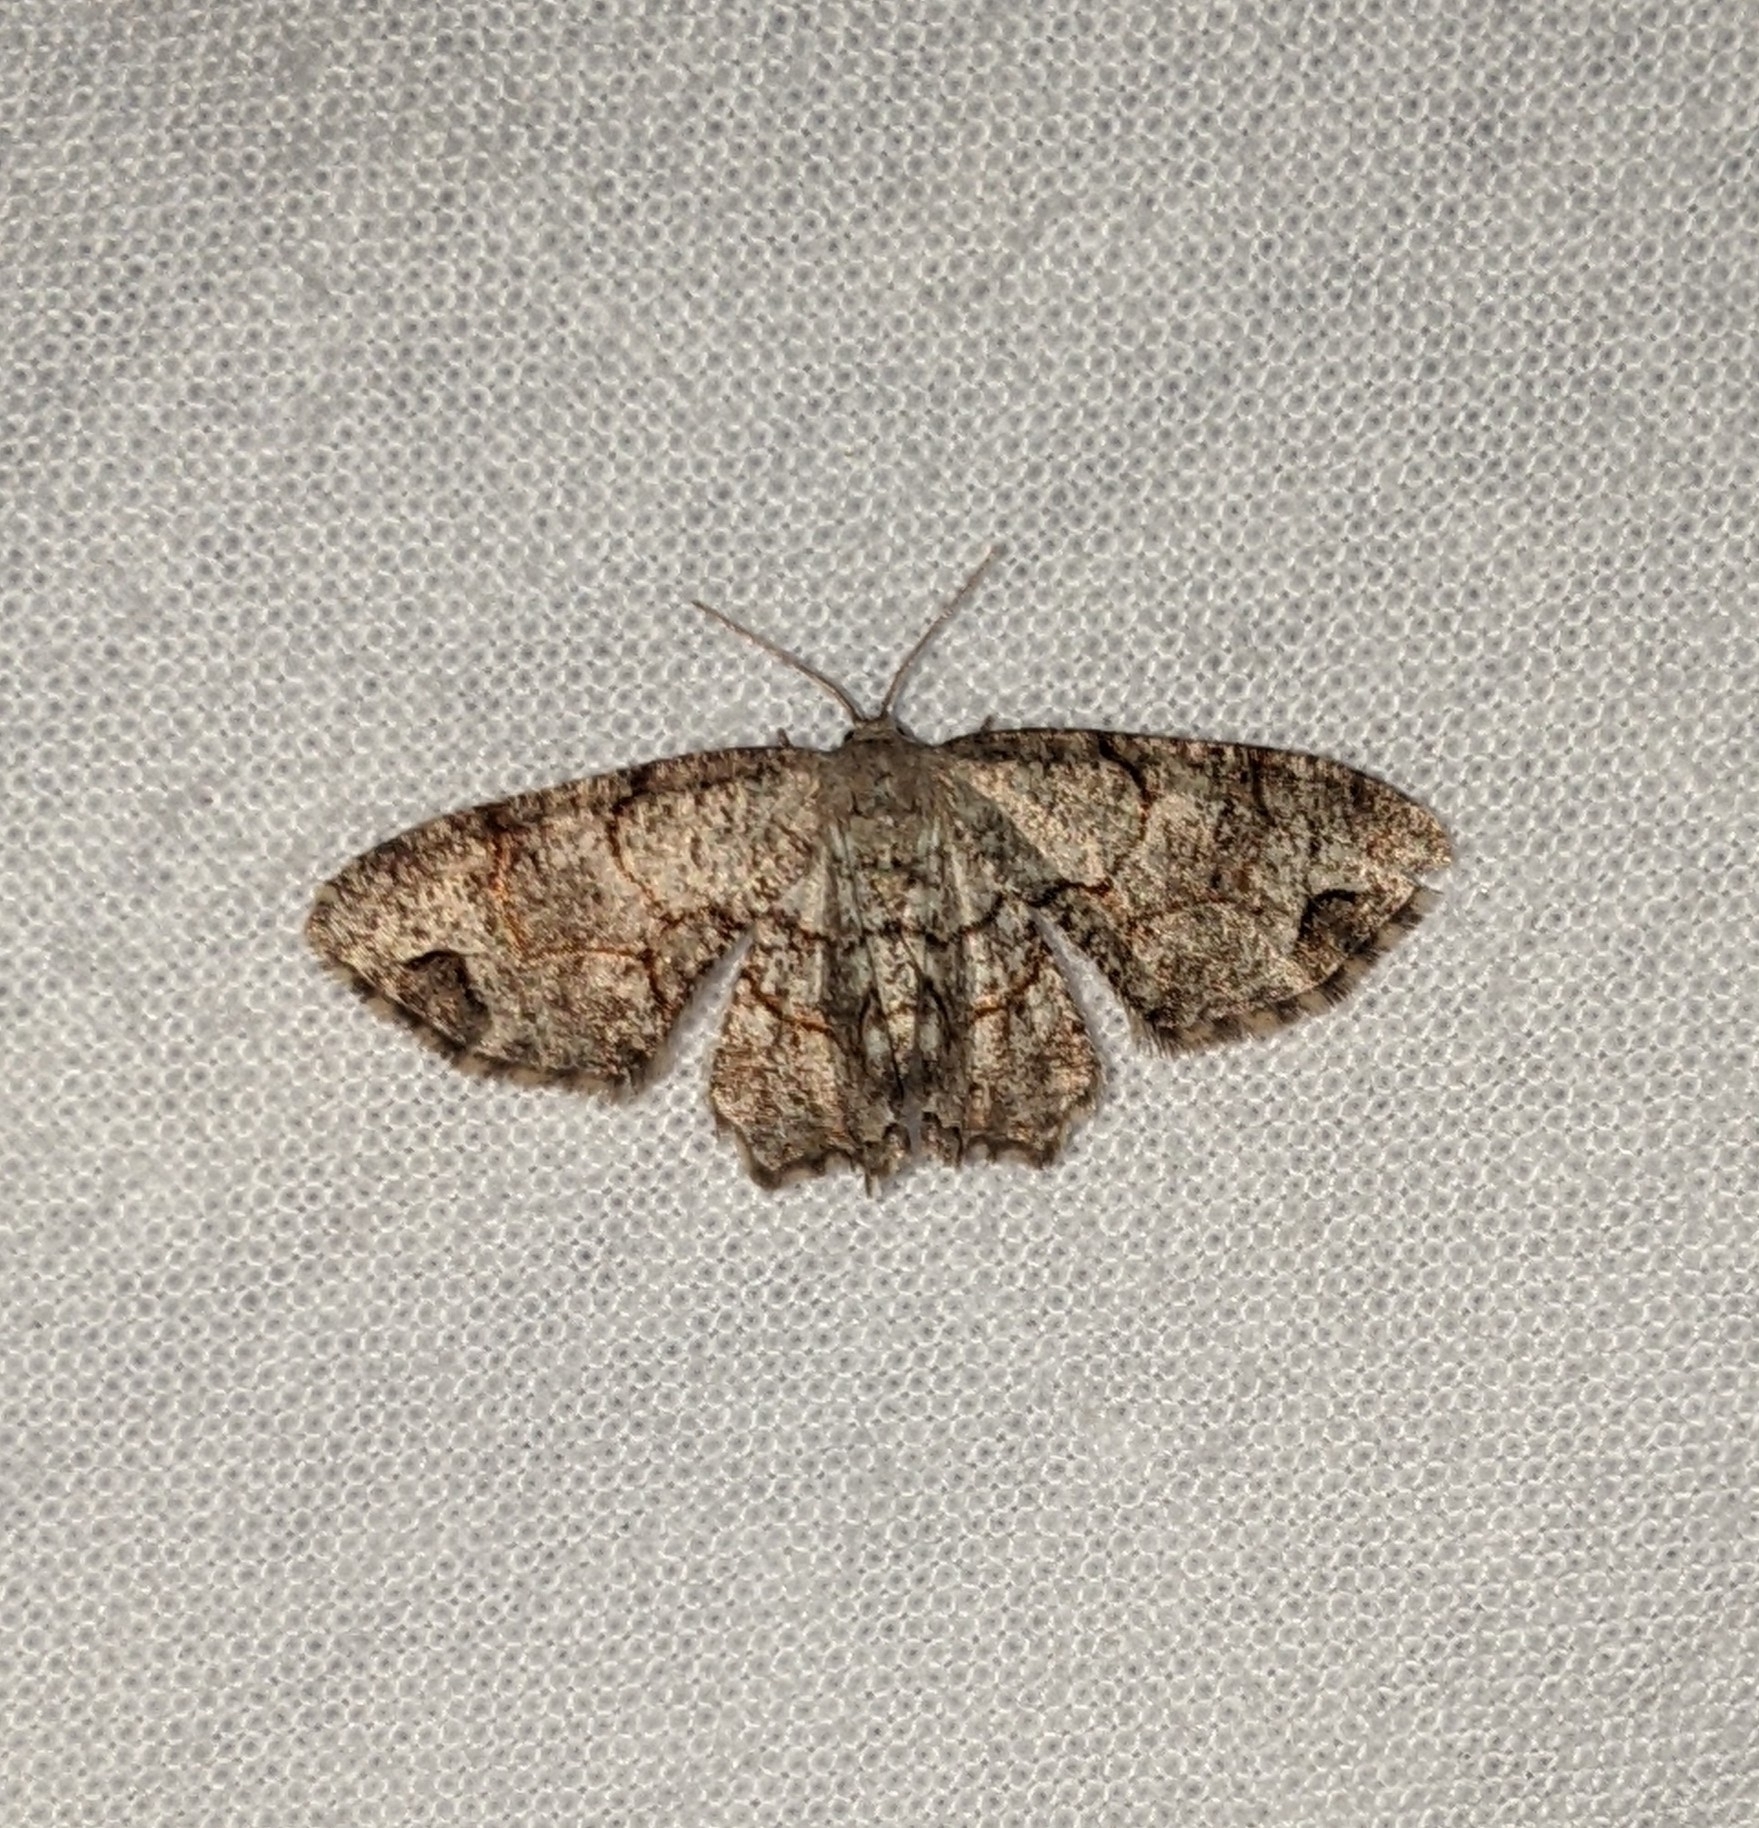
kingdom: Animalia
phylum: Arthropoda
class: Insecta
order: Lepidoptera
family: Uraniidae
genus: Epiplema
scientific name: Epiplema Callizzia amorata
